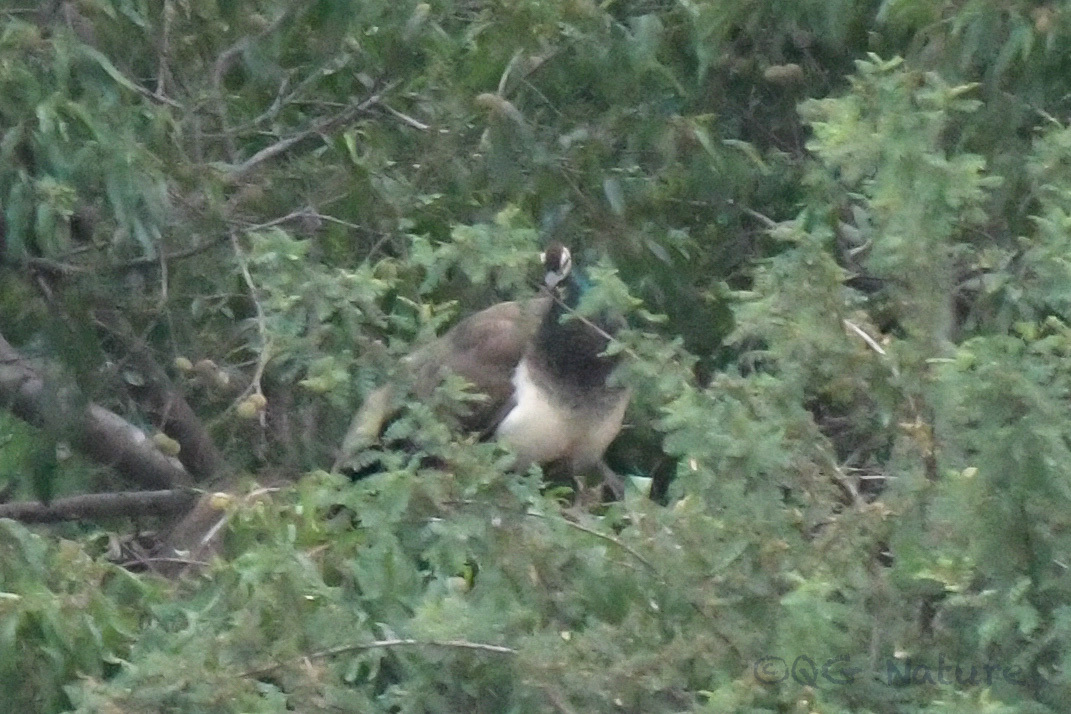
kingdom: Animalia
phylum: Chordata
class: Aves
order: Galliformes
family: Phasianidae
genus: Pavo
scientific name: Pavo cristatus
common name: Indian peafowl
